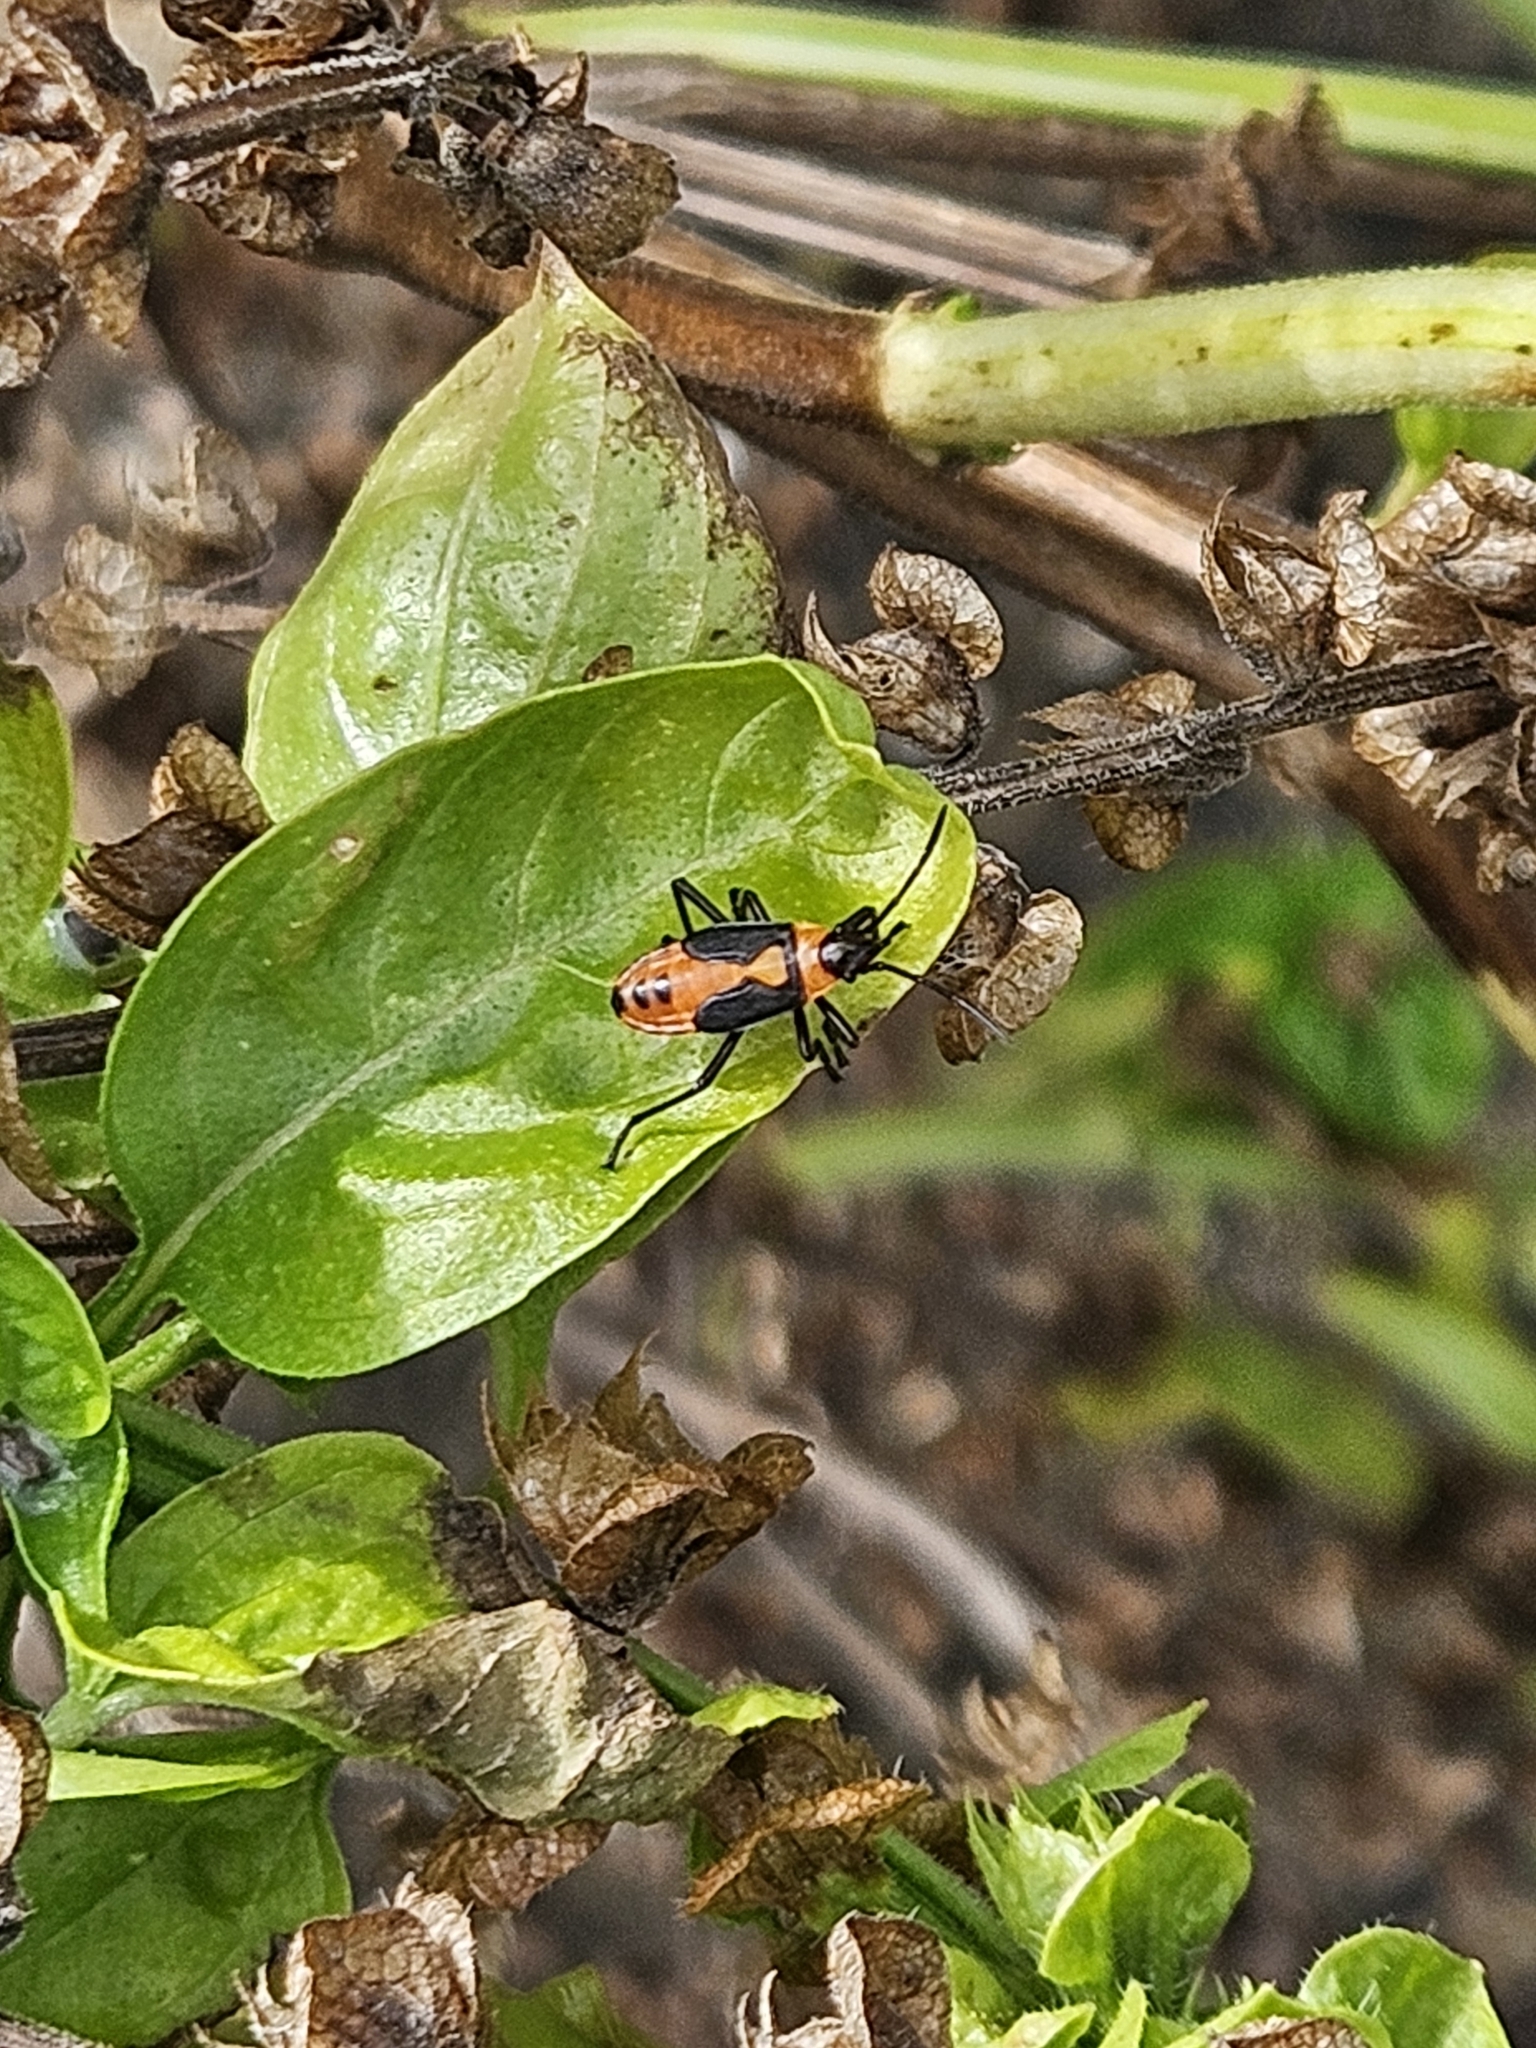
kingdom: Animalia
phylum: Arthropoda
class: Insecta
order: Hemiptera
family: Lygaeidae
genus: Oncopeltus
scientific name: Oncopeltus fasciatus
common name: Large milkweed bug
